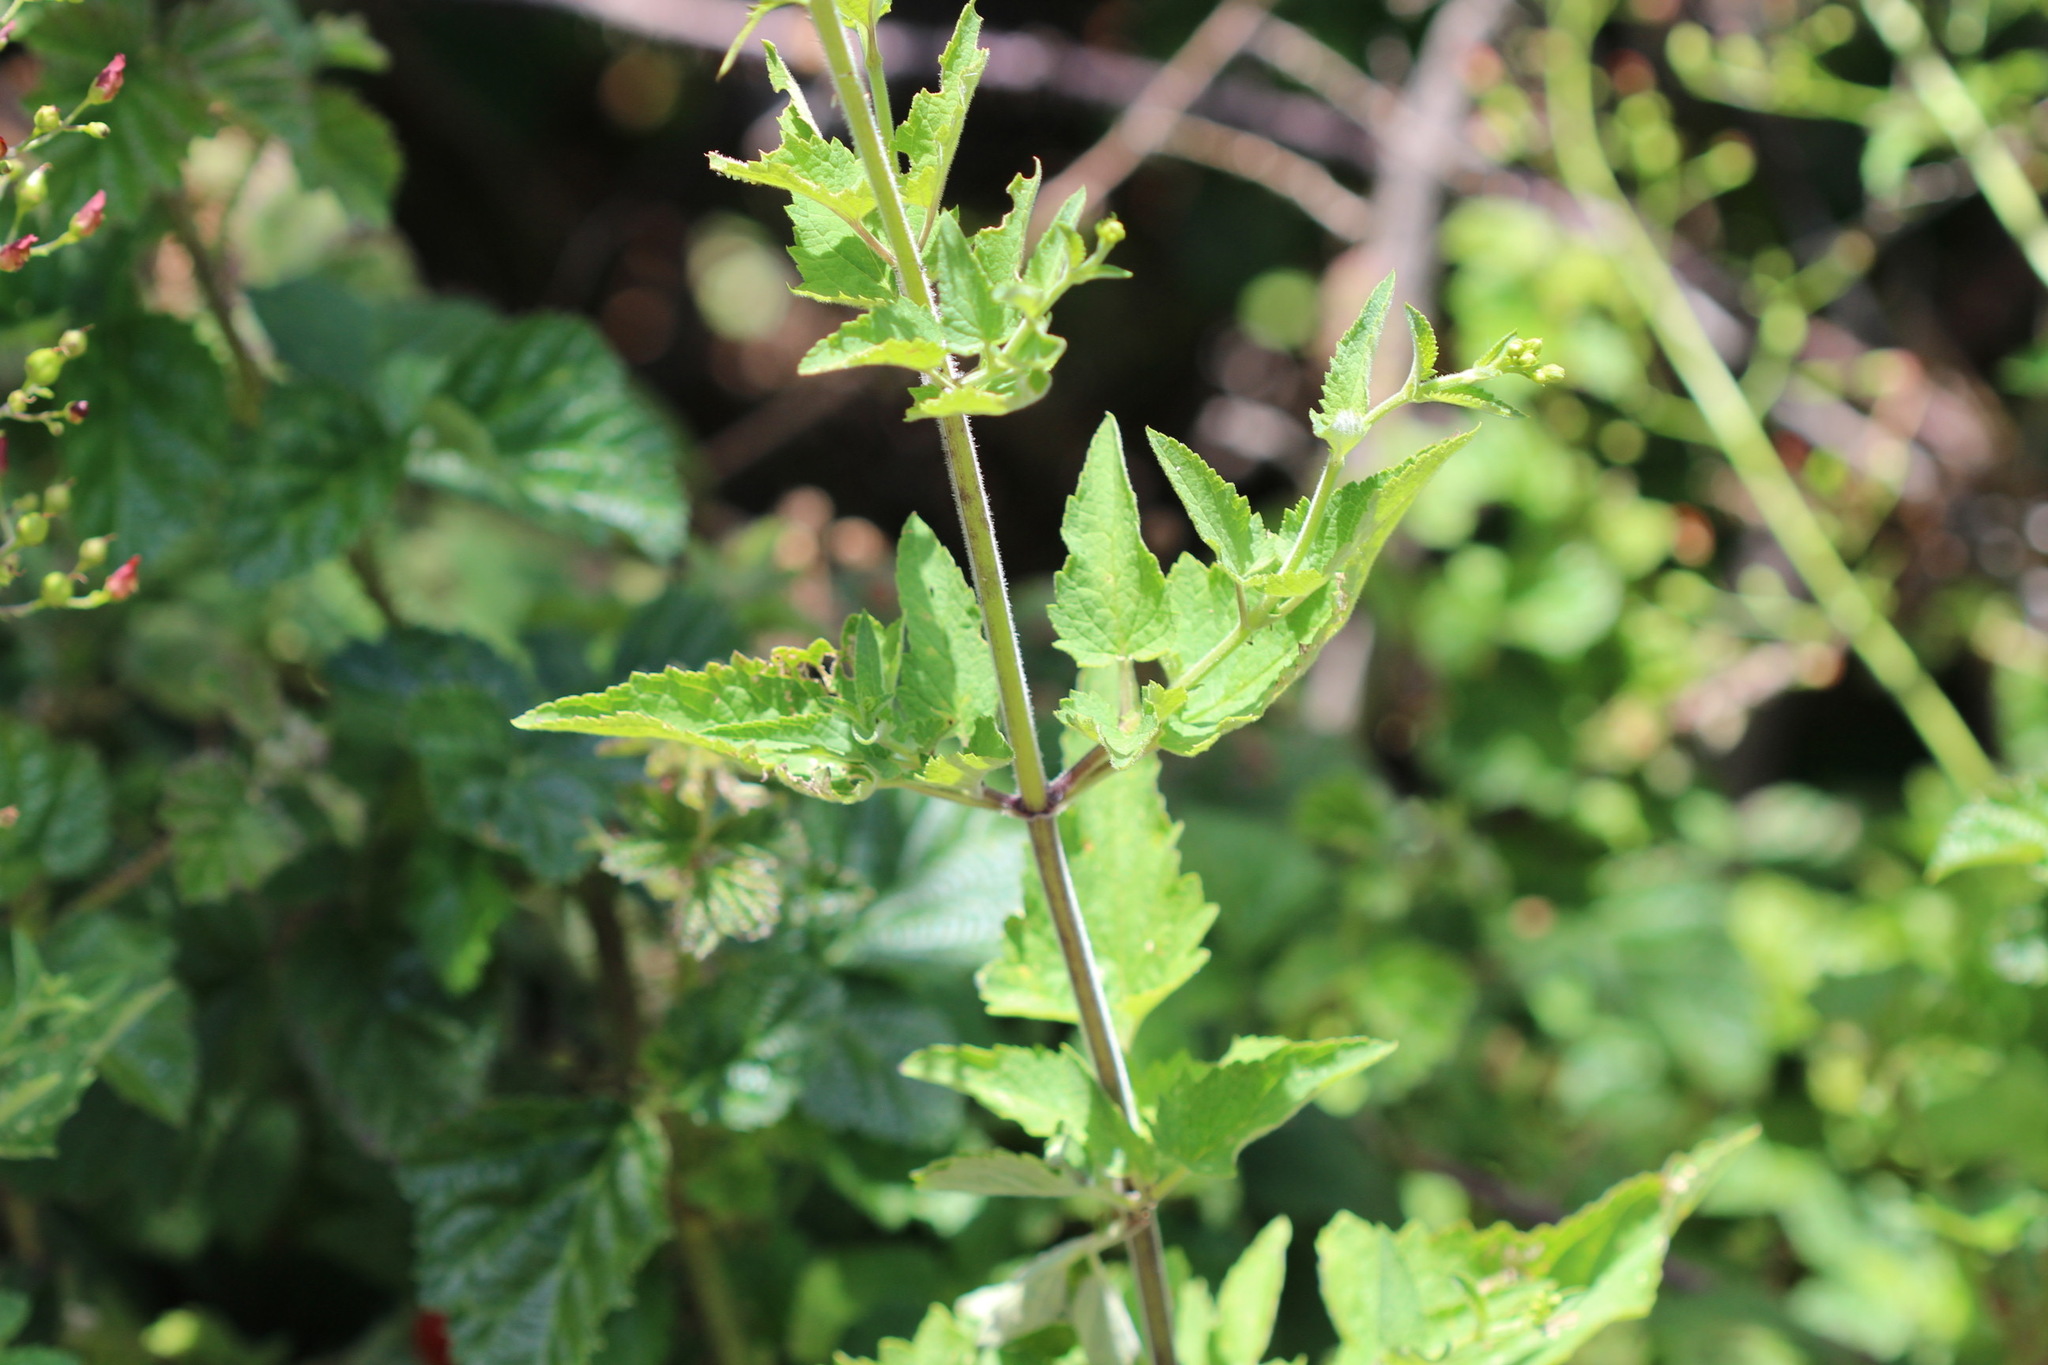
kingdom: Plantae
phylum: Tracheophyta
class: Magnoliopsida
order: Lamiales
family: Scrophulariaceae
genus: Scrophularia
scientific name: Scrophularia californica
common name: California figwort
